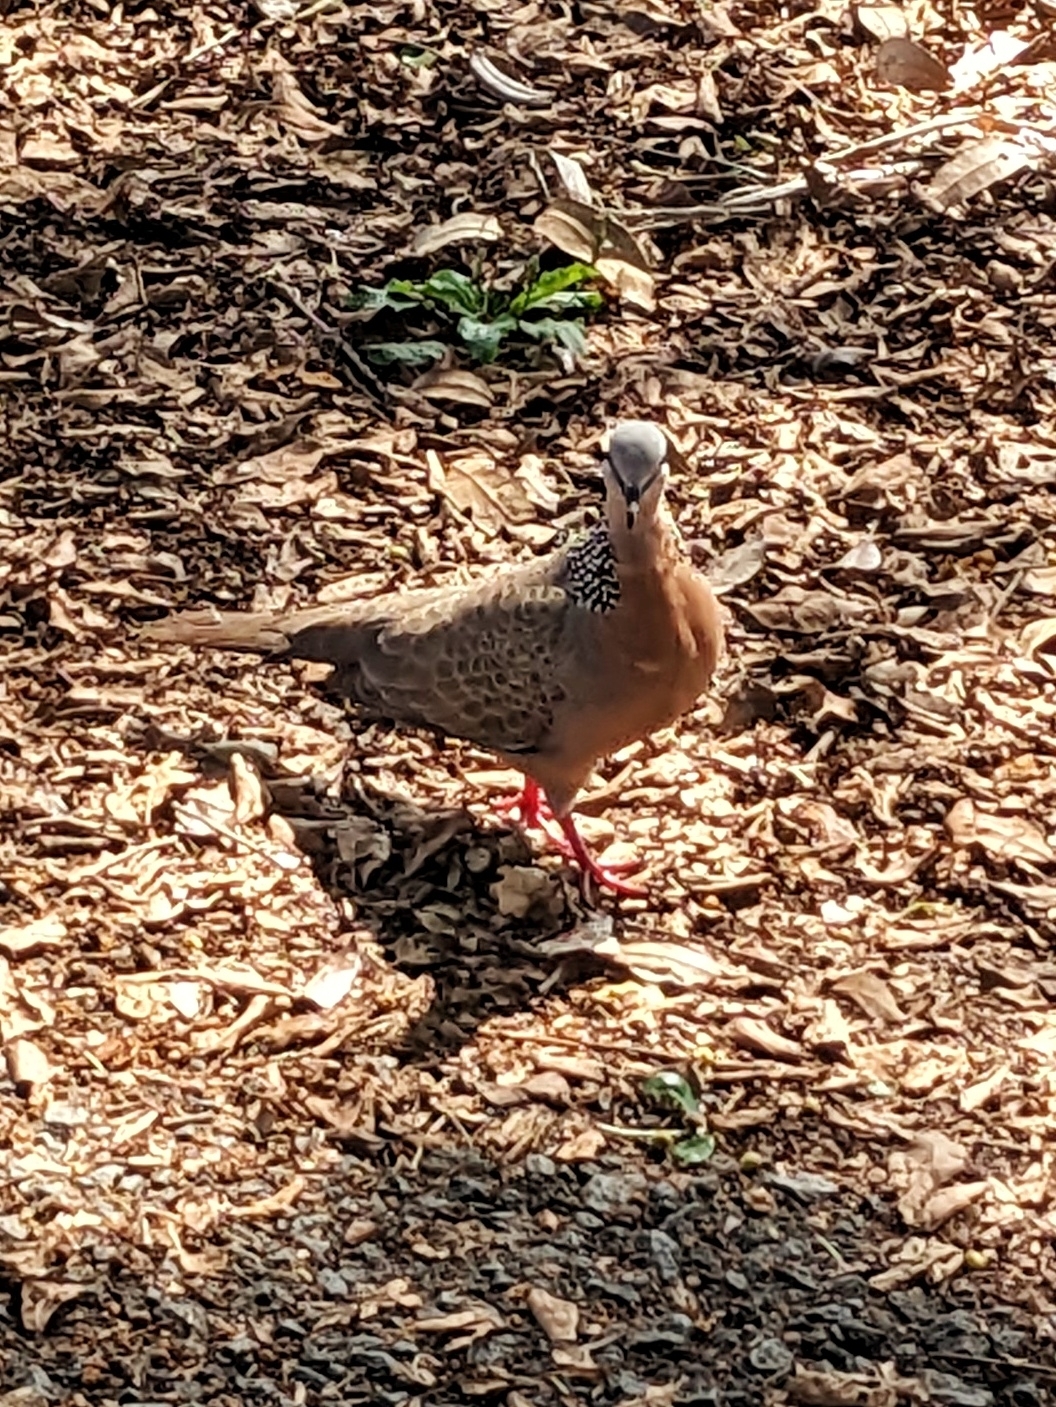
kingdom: Animalia
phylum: Chordata
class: Aves
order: Columbiformes
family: Columbidae
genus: Spilopelia
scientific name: Spilopelia chinensis
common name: Spotted dove
